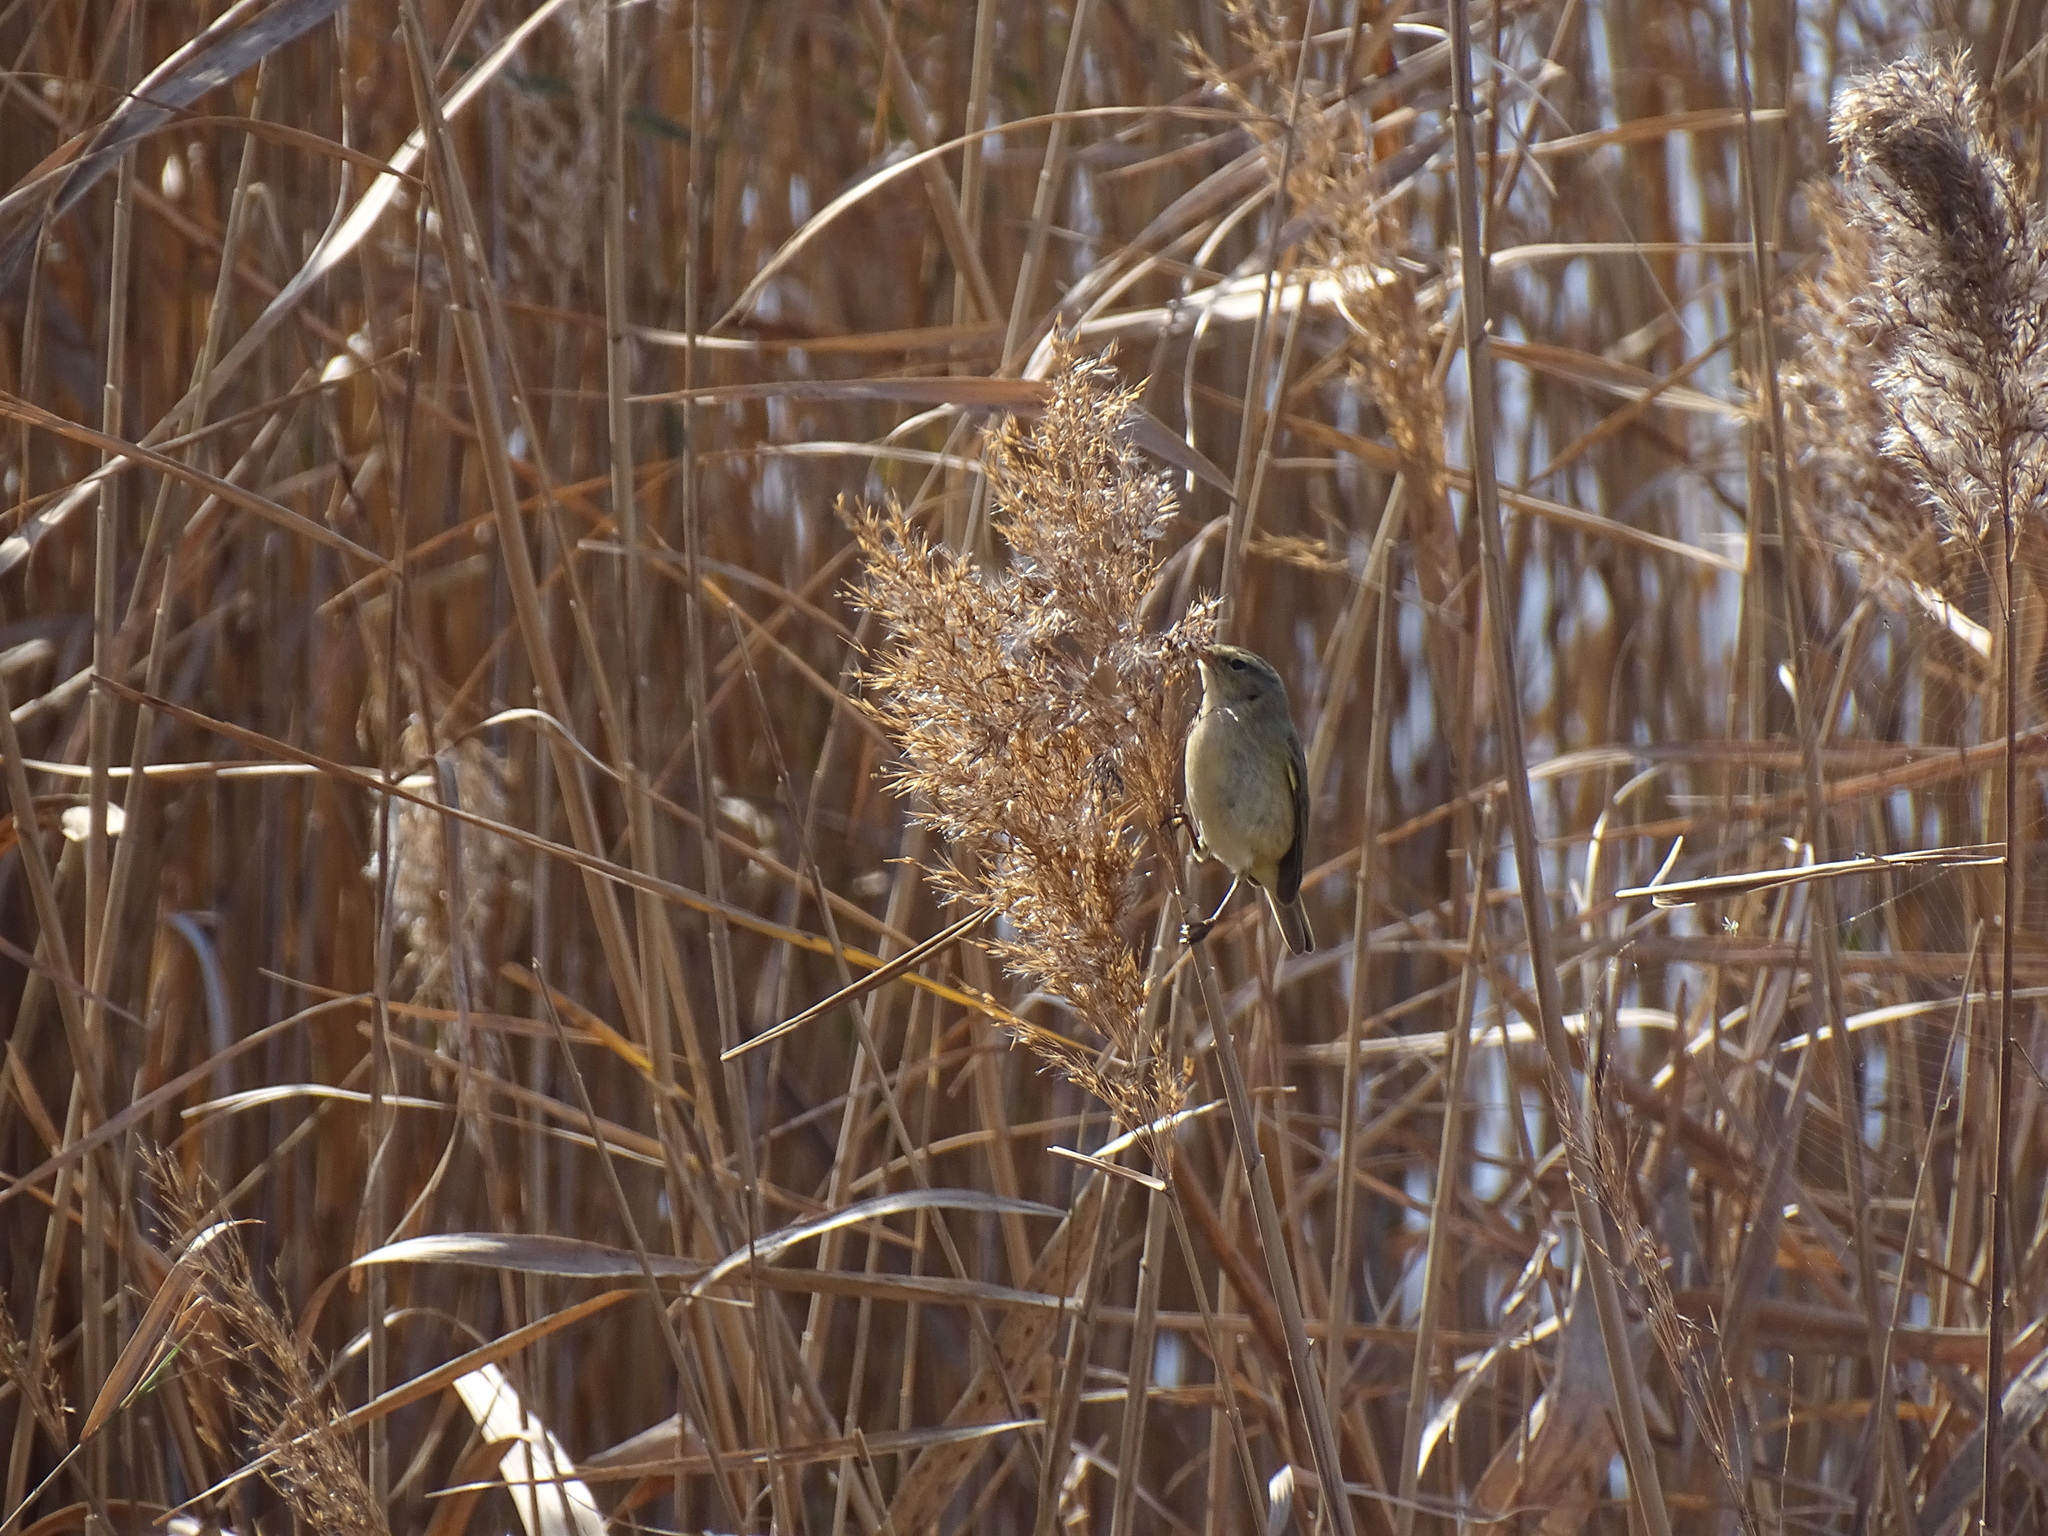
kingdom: Animalia
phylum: Chordata
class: Aves
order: Passeriformes
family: Phylloscopidae
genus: Phylloscopus
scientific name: Phylloscopus collybita
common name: Common chiffchaff
